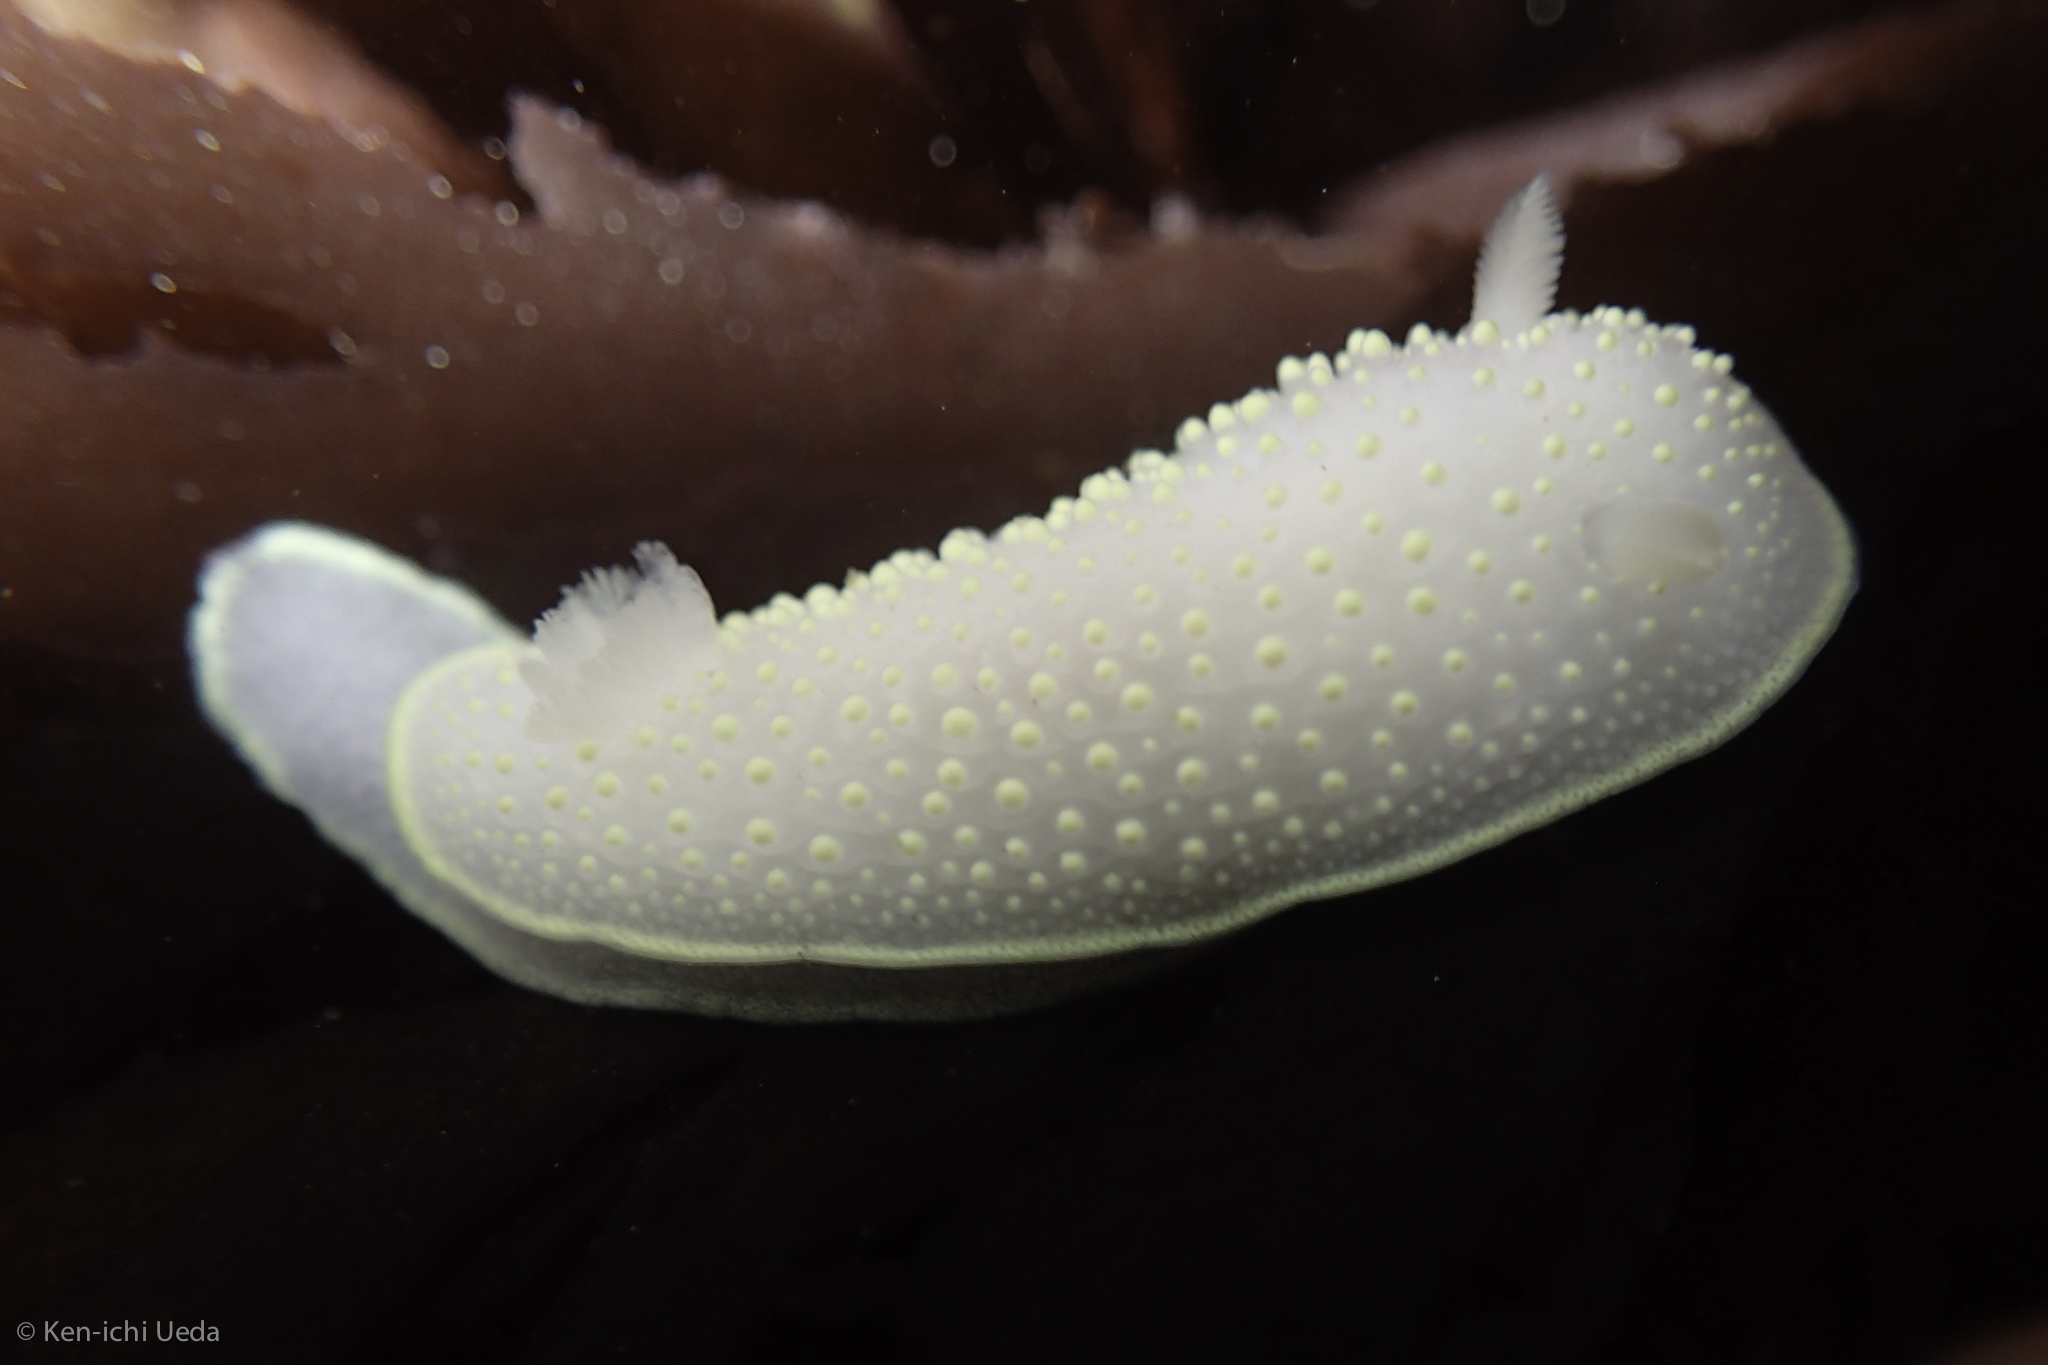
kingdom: Animalia
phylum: Mollusca
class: Gastropoda
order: Nudibranchia
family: Cadlinidae
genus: Cadlina
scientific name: Cadlina luteomarginata
